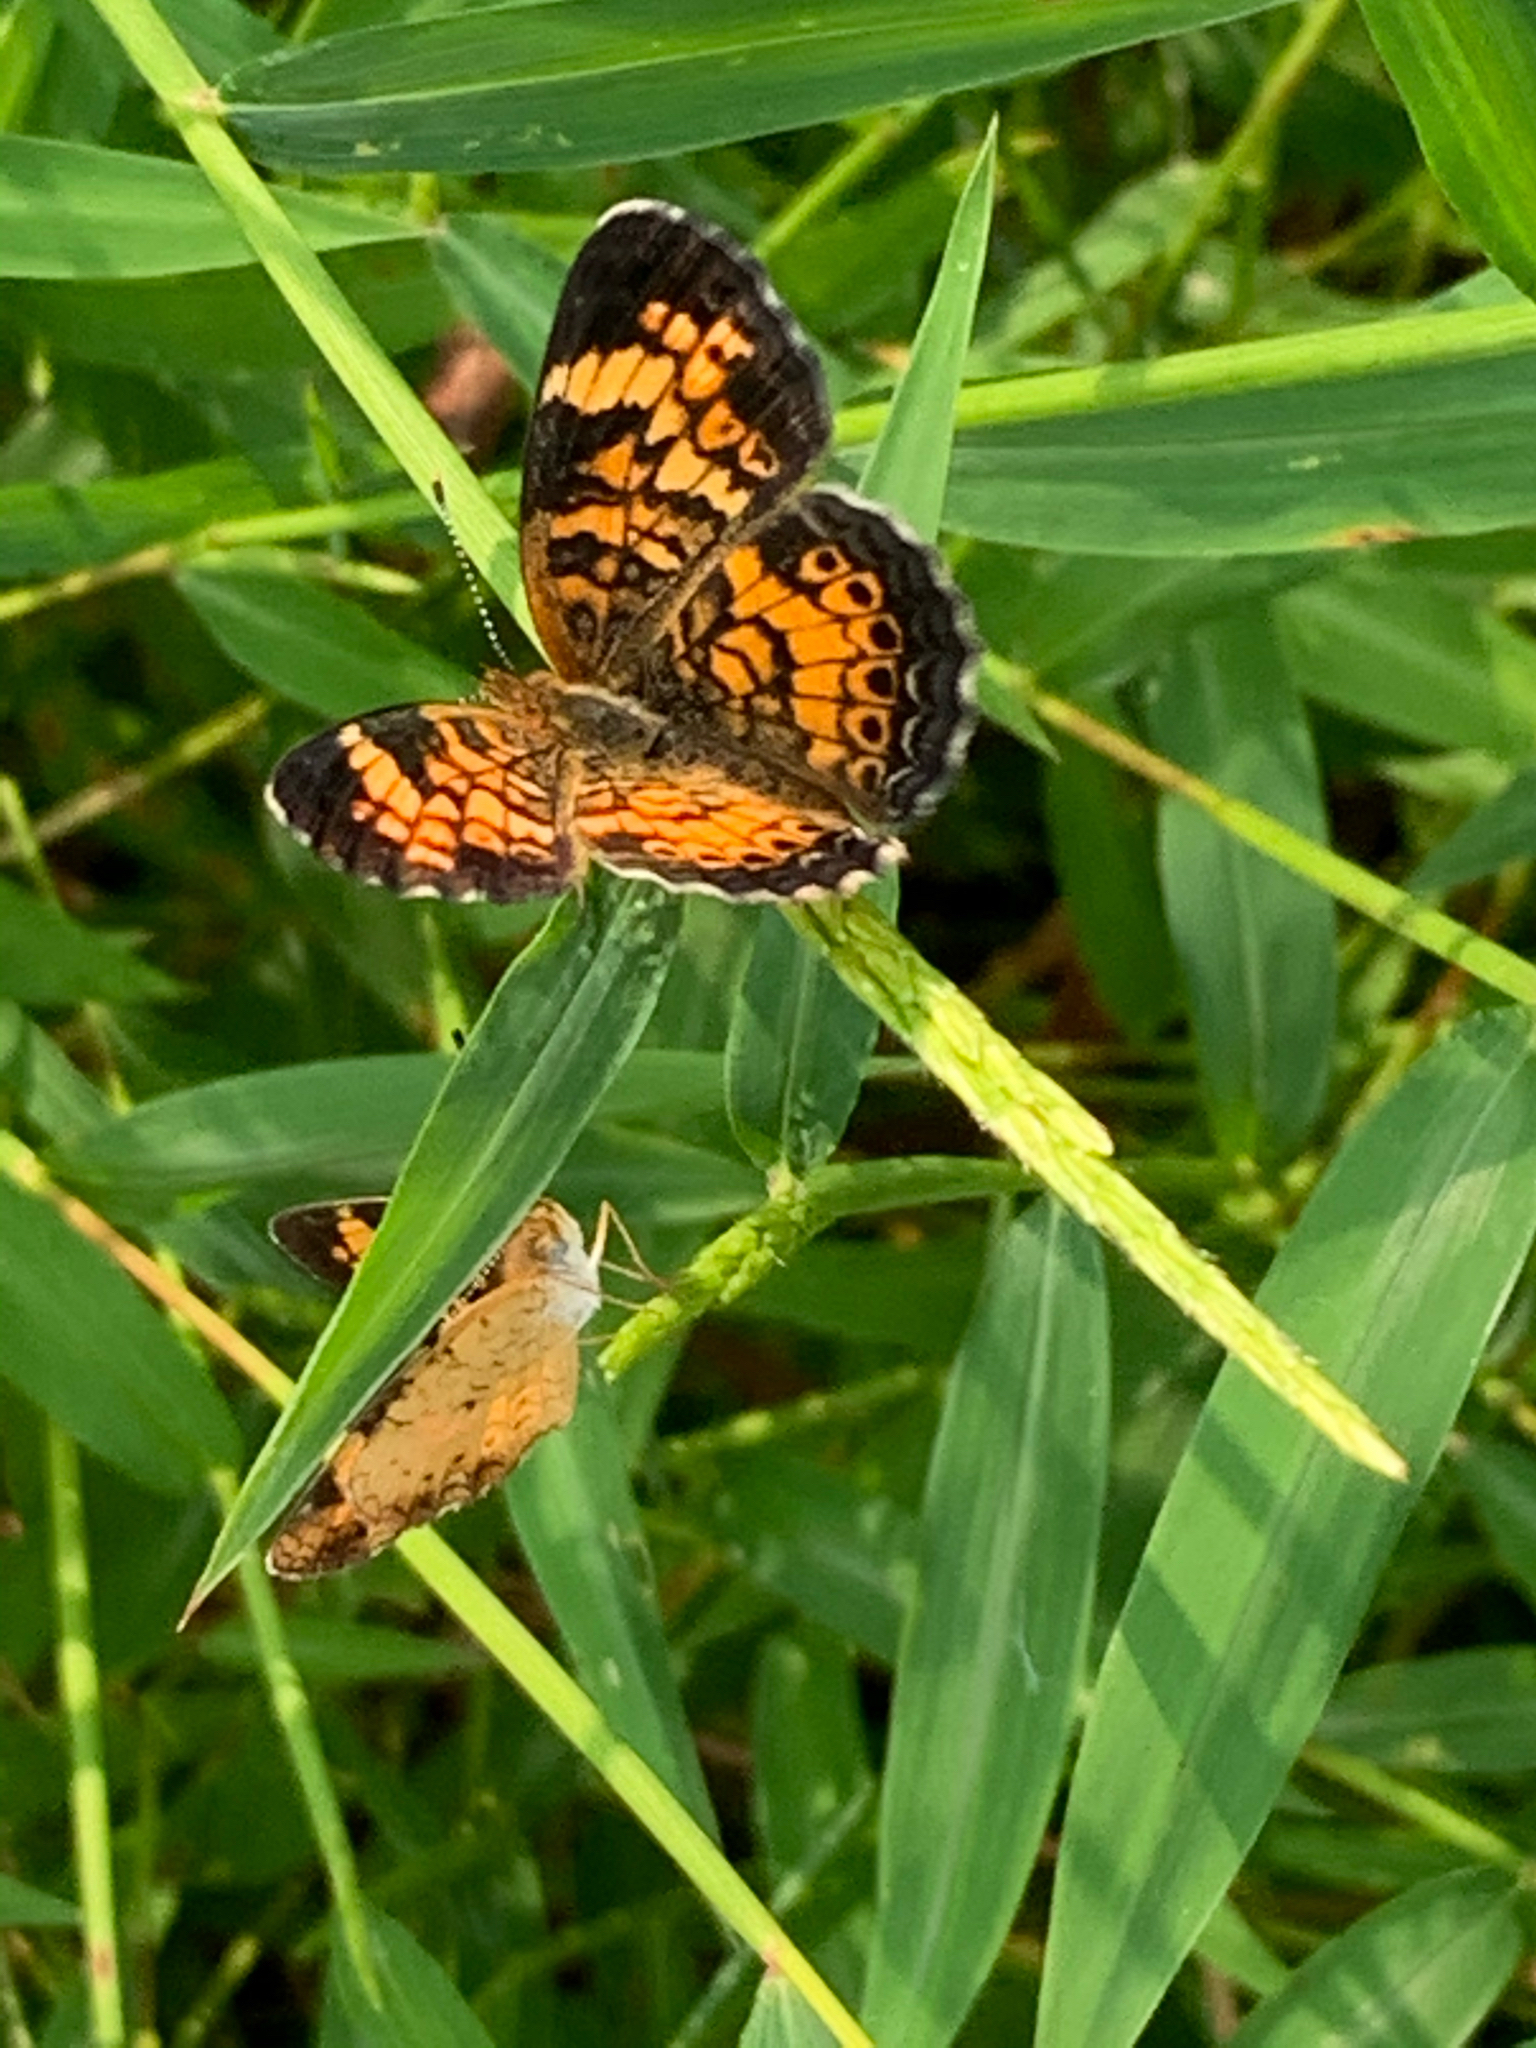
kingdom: Animalia
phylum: Arthropoda
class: Insecta
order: Lepidoptera
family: Nymphalidae
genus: Phyciodes
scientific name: Phyciodes tharos
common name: Pearl crescent
